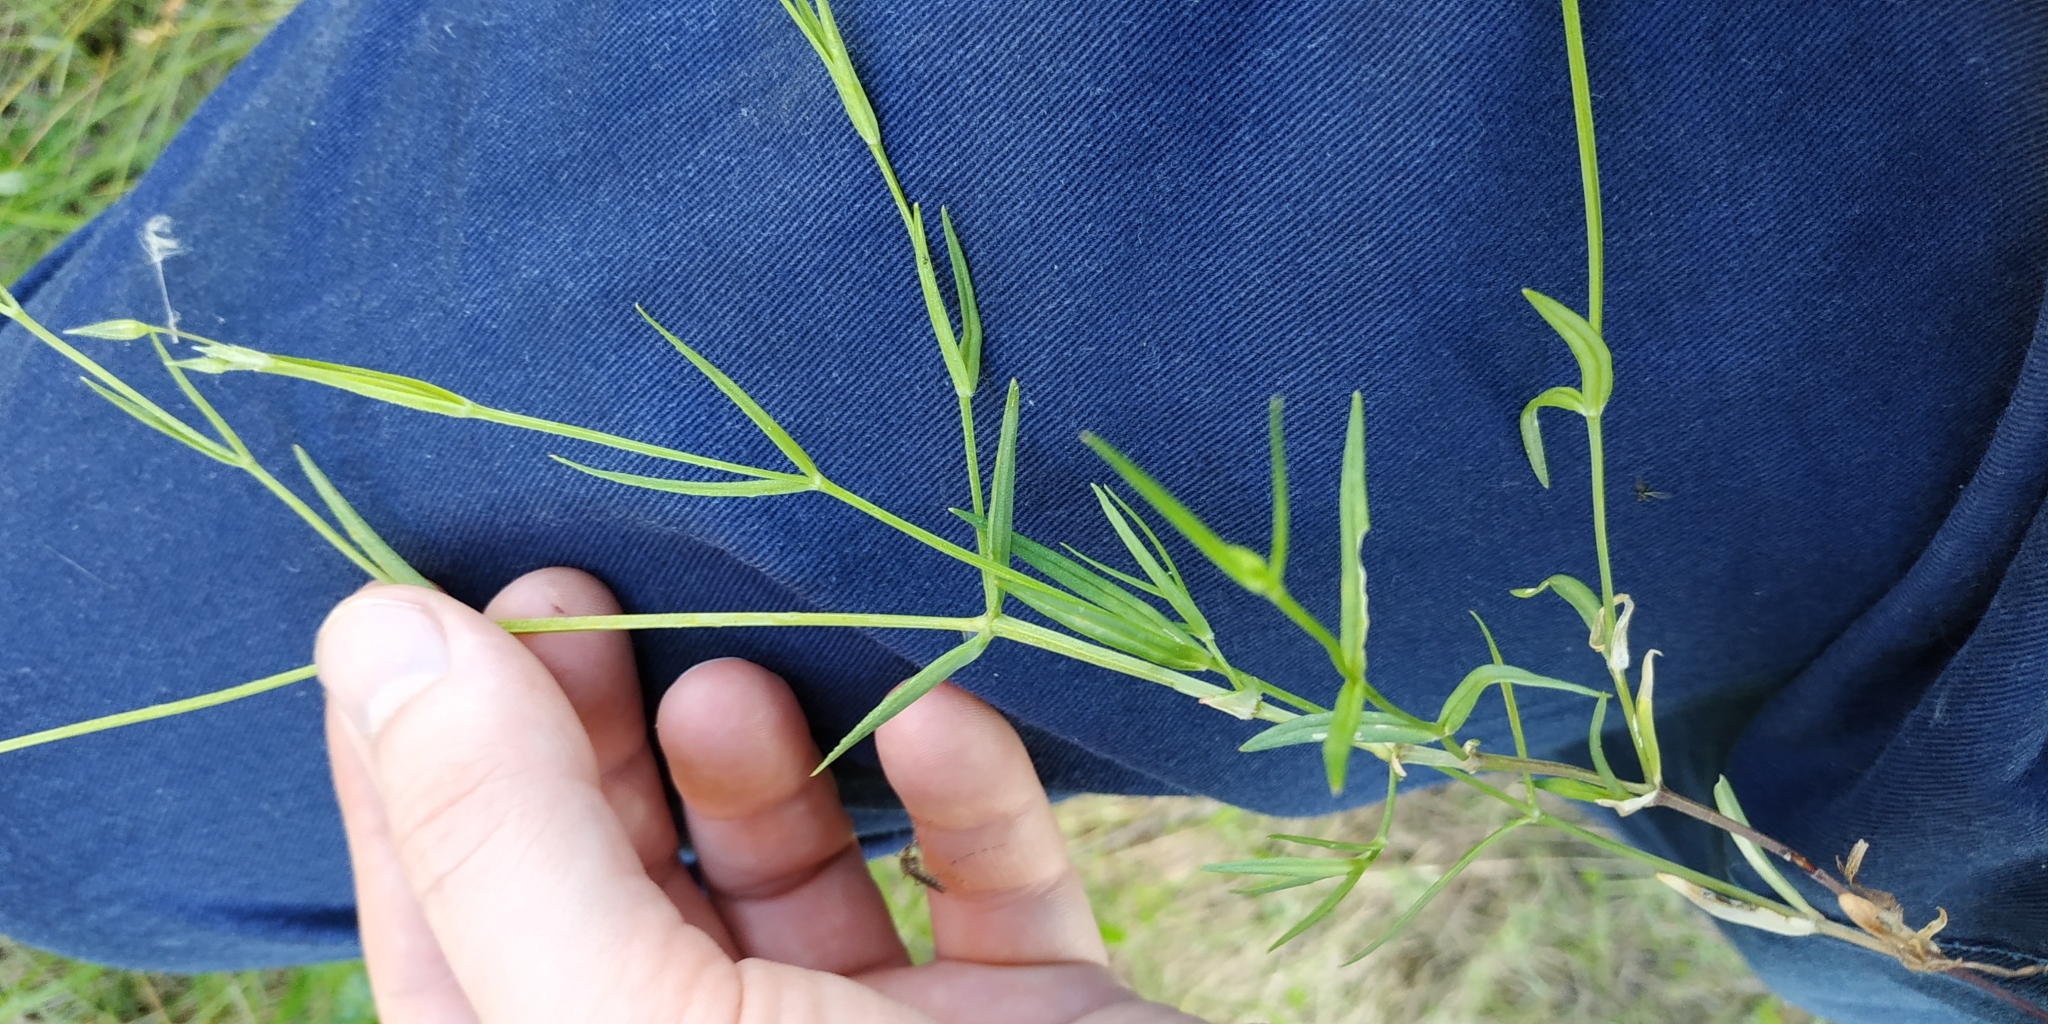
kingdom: Plantae
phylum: Tracheophyta
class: Magnoliopsida
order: Caryophyllales
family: Caryophyllaceae
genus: Stellaria
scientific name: Stellaria graminea
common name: Grass-like starwort
